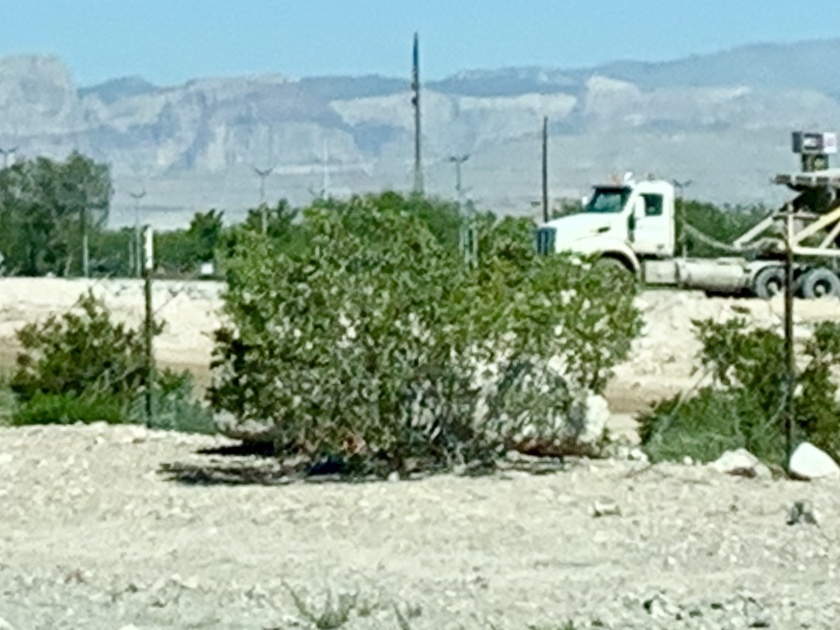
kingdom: Plantae
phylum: Tracheophyta
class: Magnoliopsida
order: Zygophyllales
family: Zygophyllaceae
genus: Larrea
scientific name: Larrea tridentata
